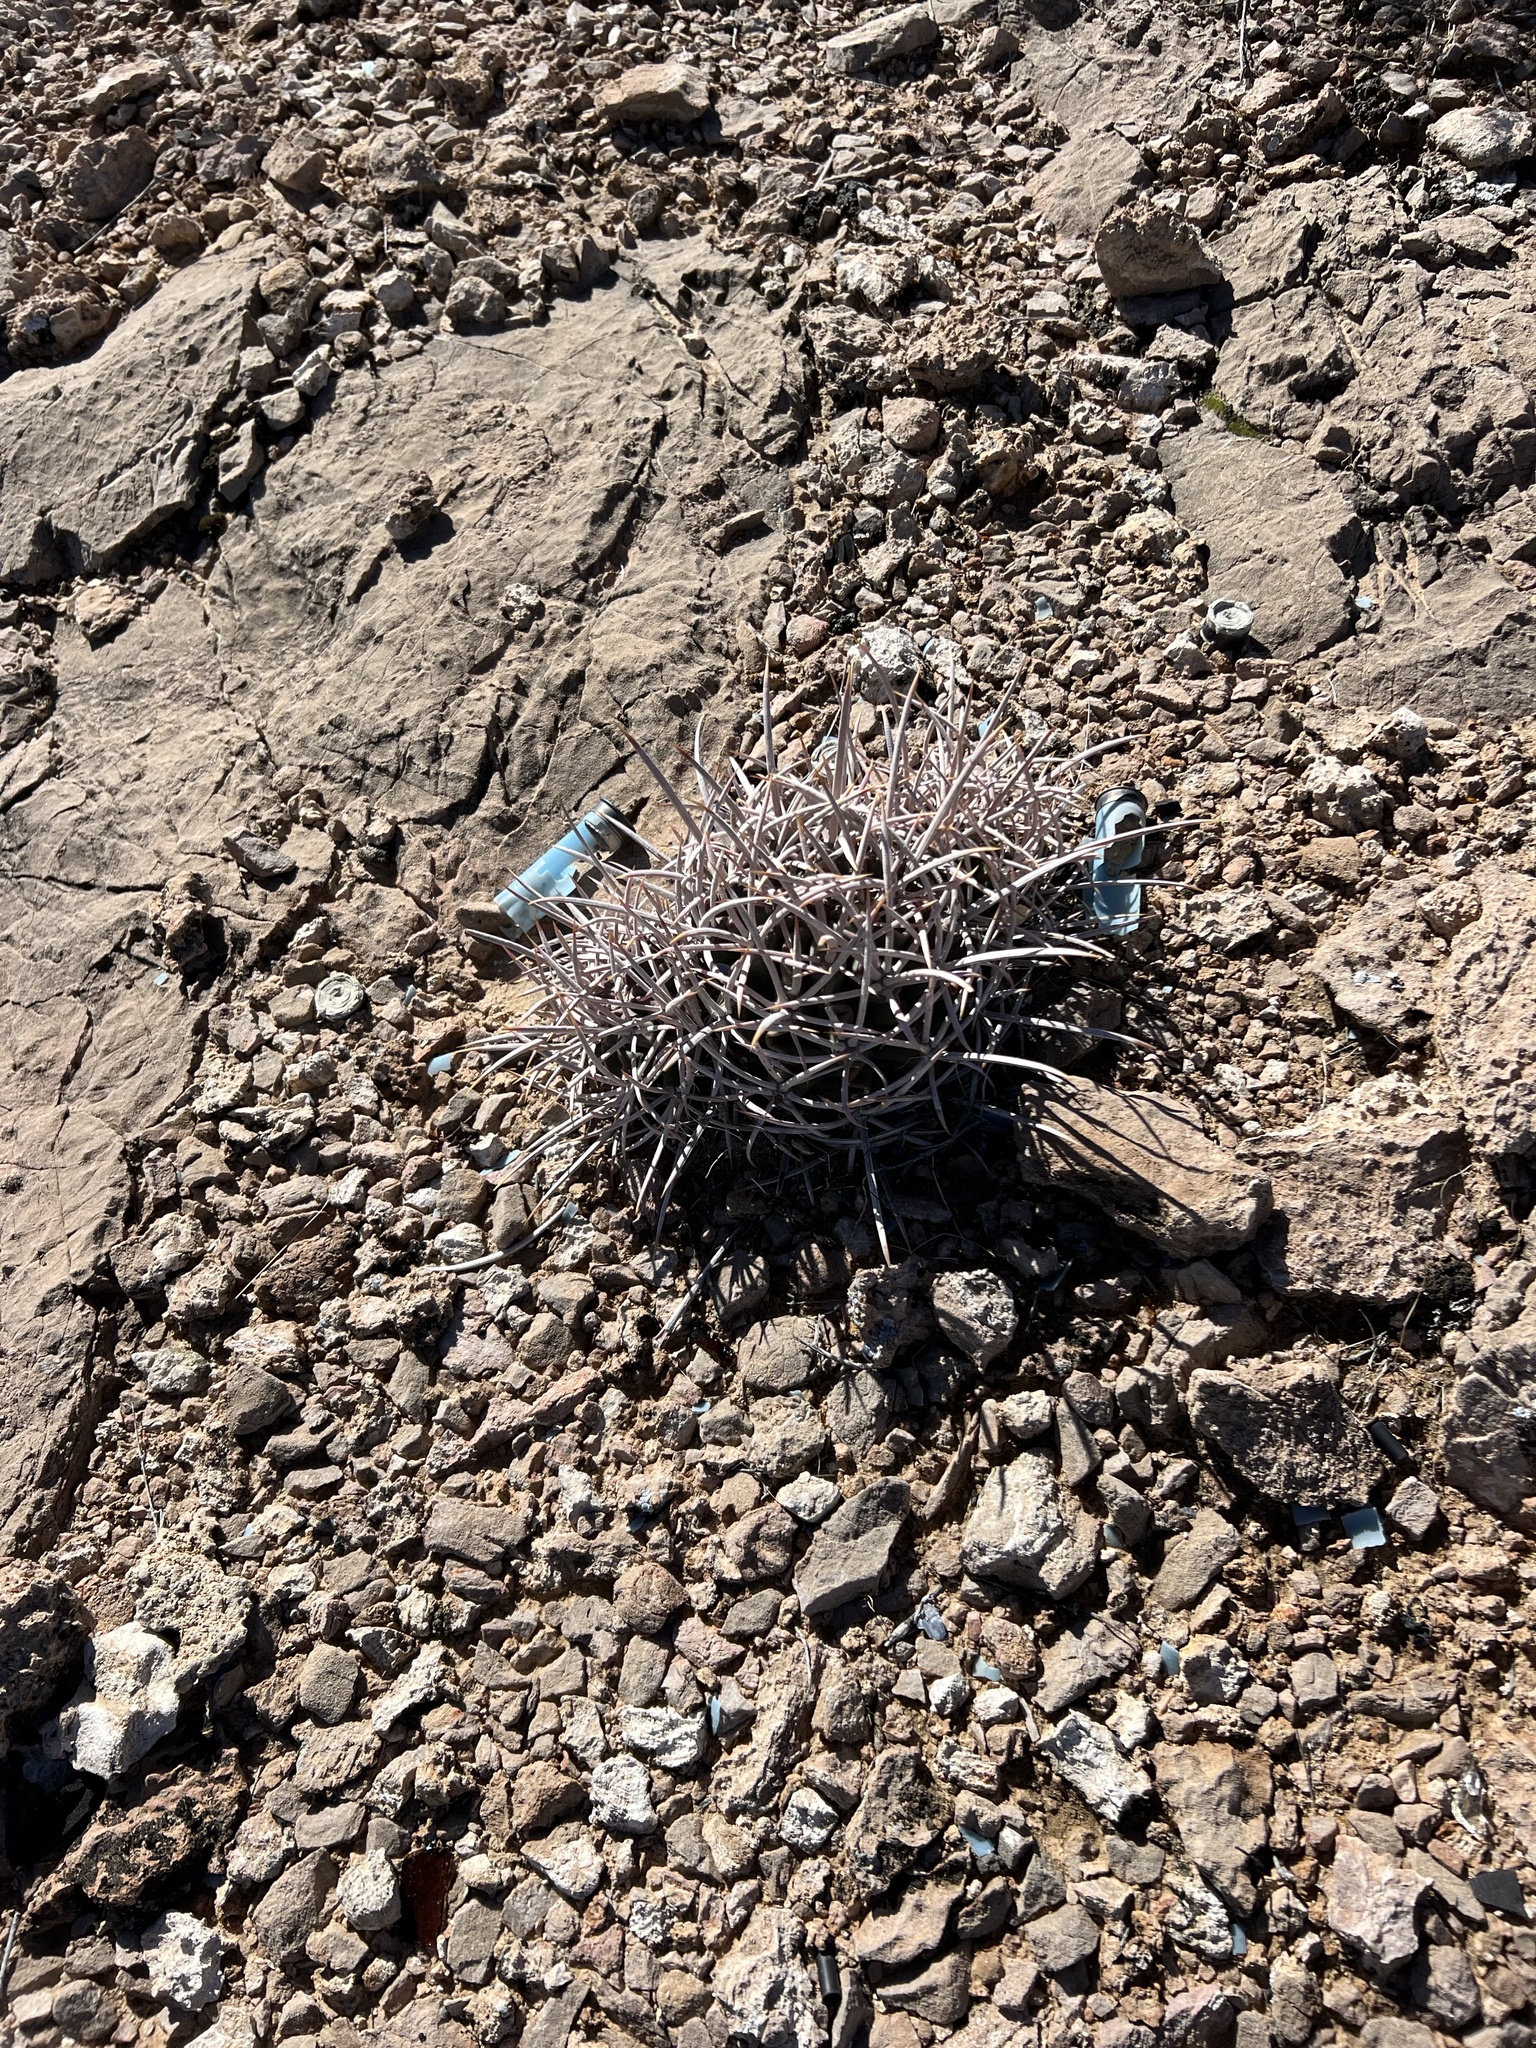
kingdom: Plantae
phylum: Tracheophyta
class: Magnoliopsida
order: Caryophyllales
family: Cactaceae
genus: Echinocactus
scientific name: Echinocactus polycephalus
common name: Cottontop cactus
